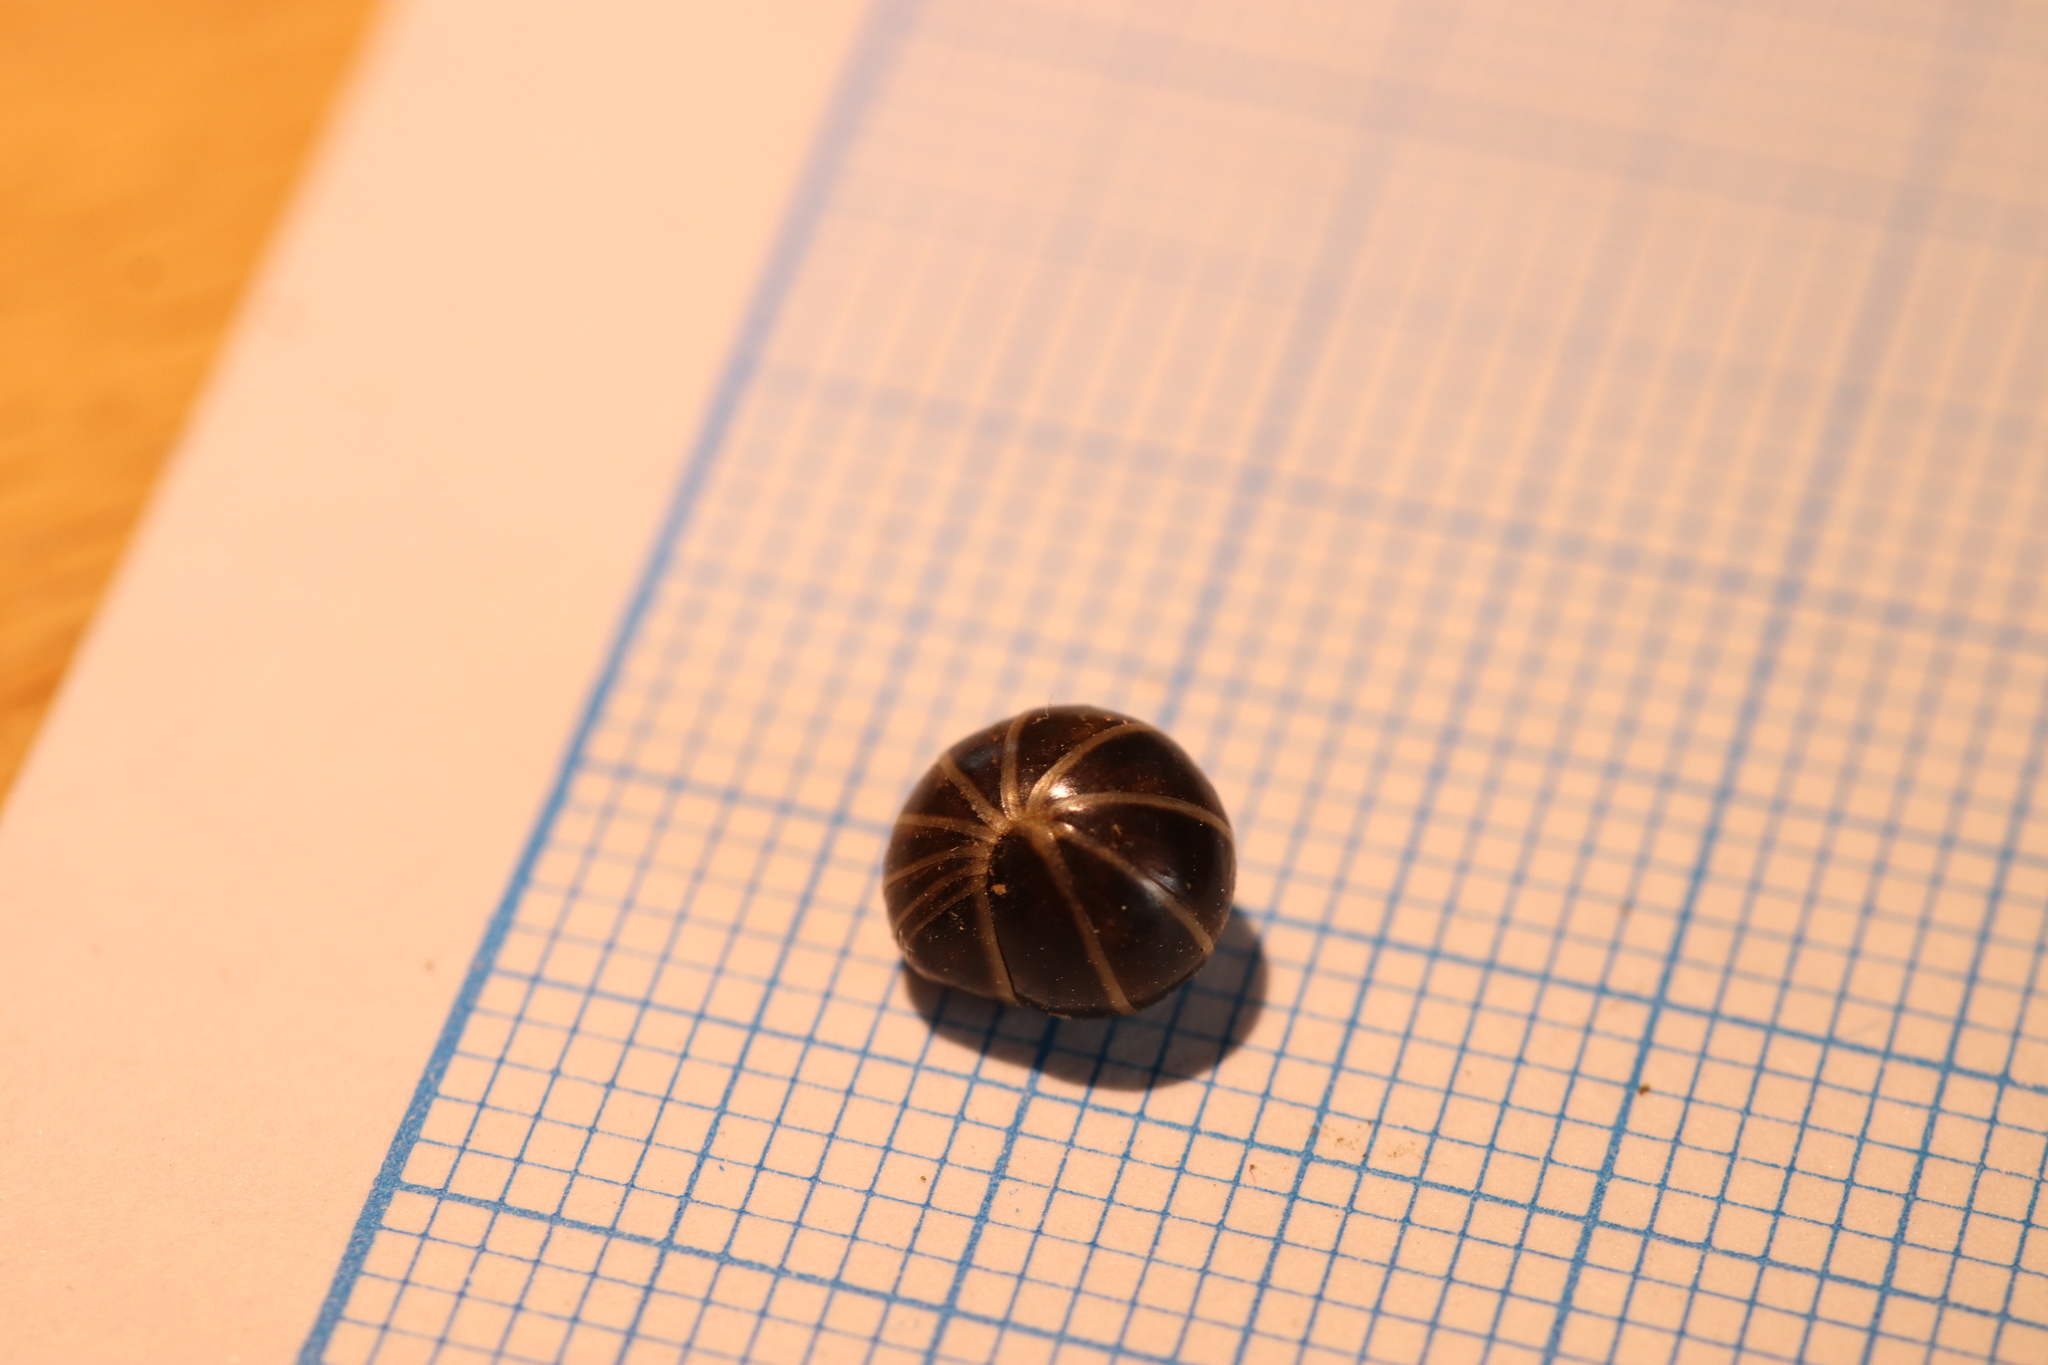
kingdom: Animalia
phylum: Arthropoda
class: Diplopoda
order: Glomerida
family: Glomeridae
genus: Glomeris
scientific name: Glomeris marginata
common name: Bordered pill millipede
